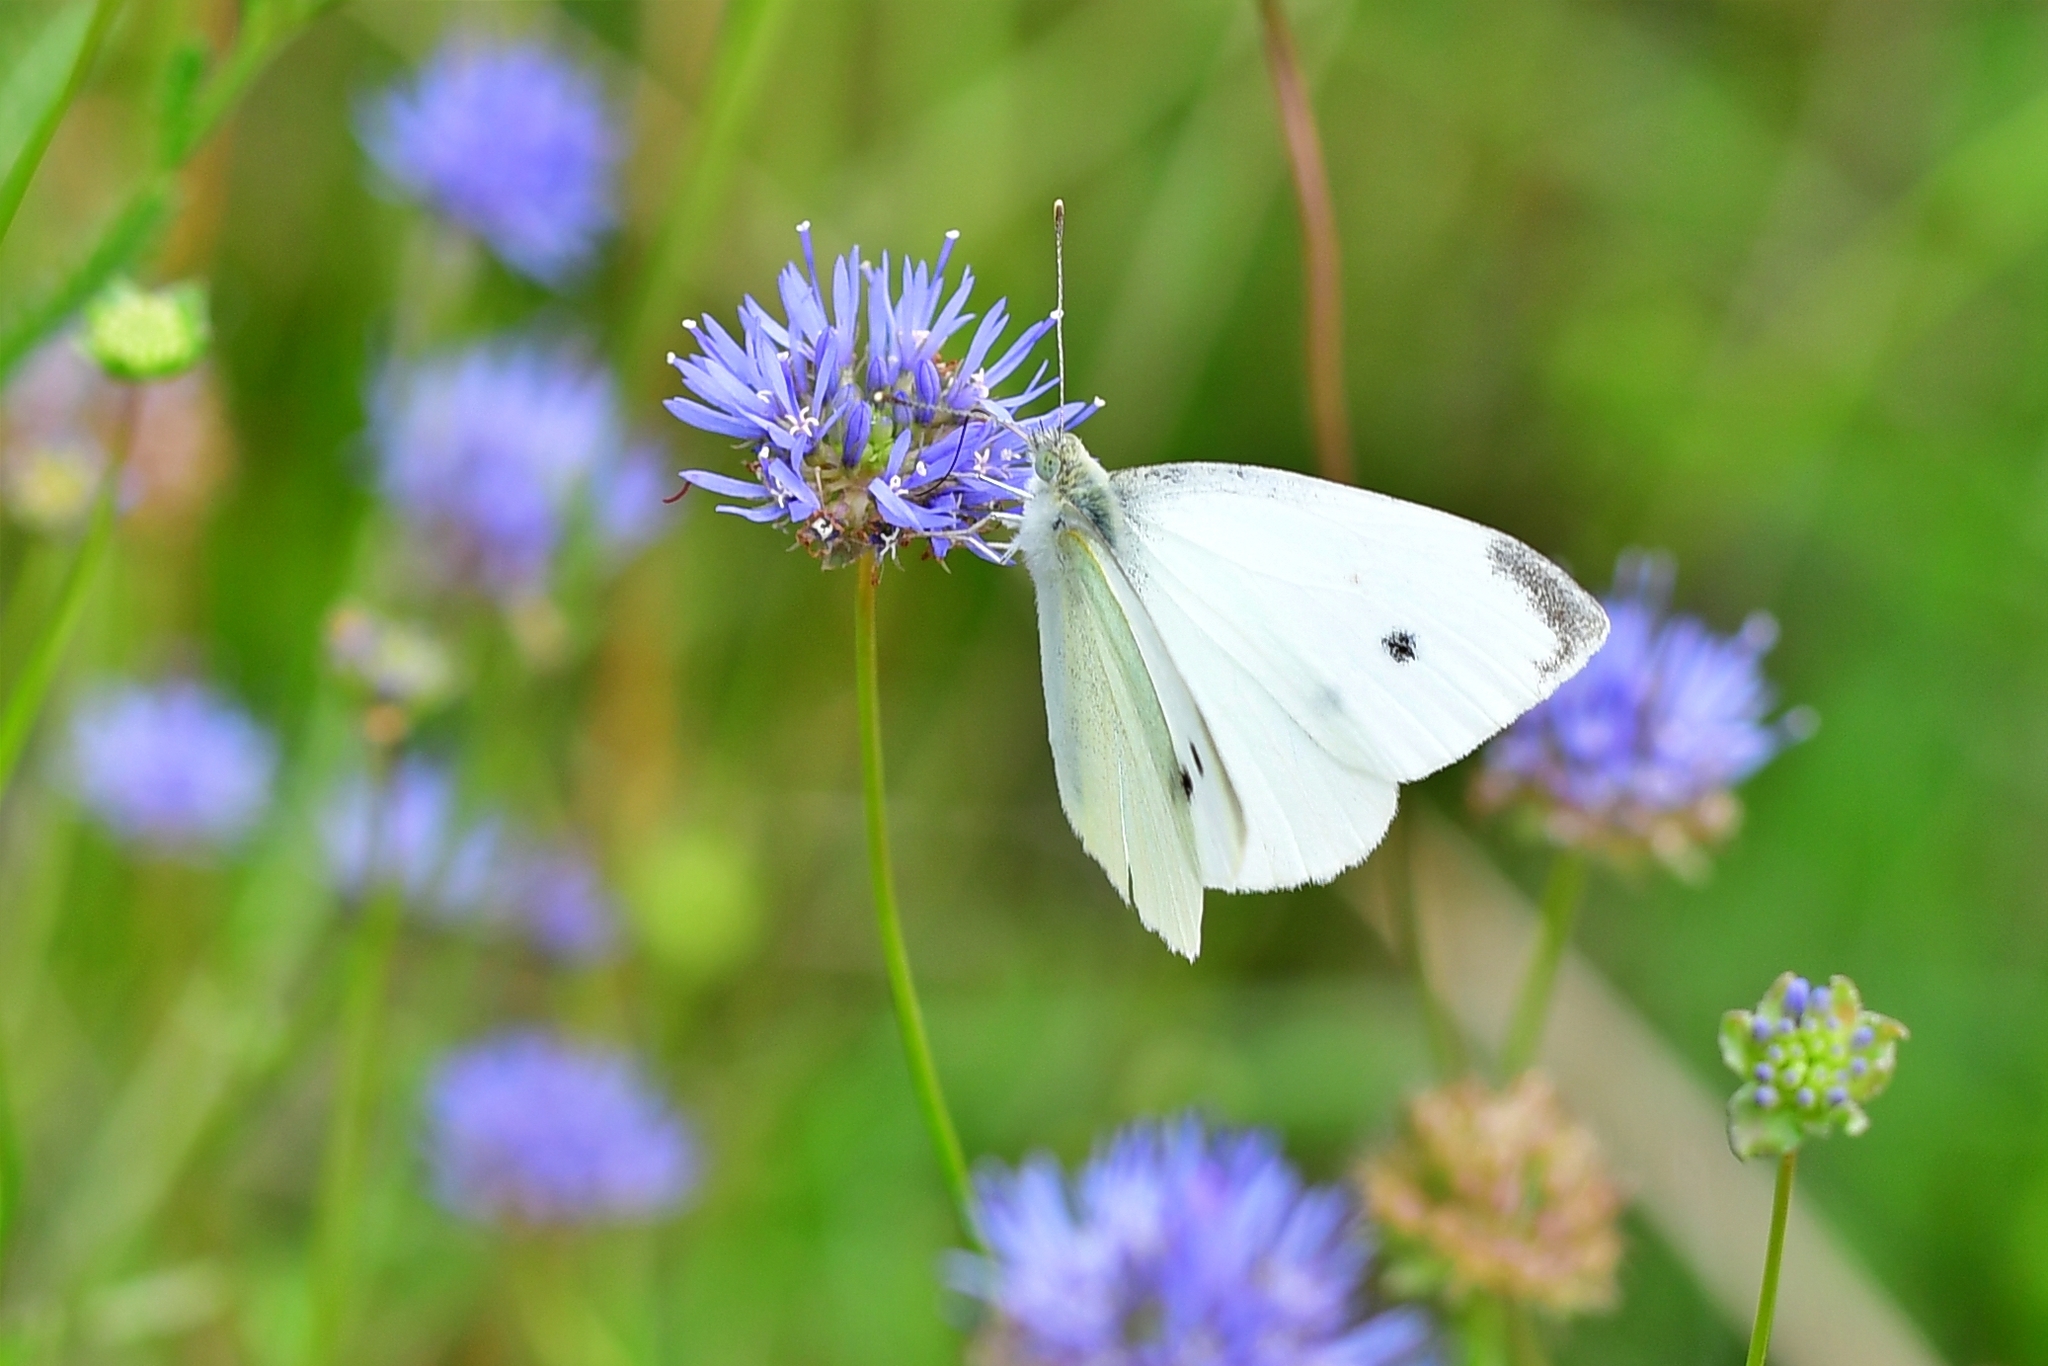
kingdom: Animalia
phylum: Arthropoda
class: Insecta
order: Lepidoptera
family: Pieridae
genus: Pieris
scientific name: Pieris rapae
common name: Small white
